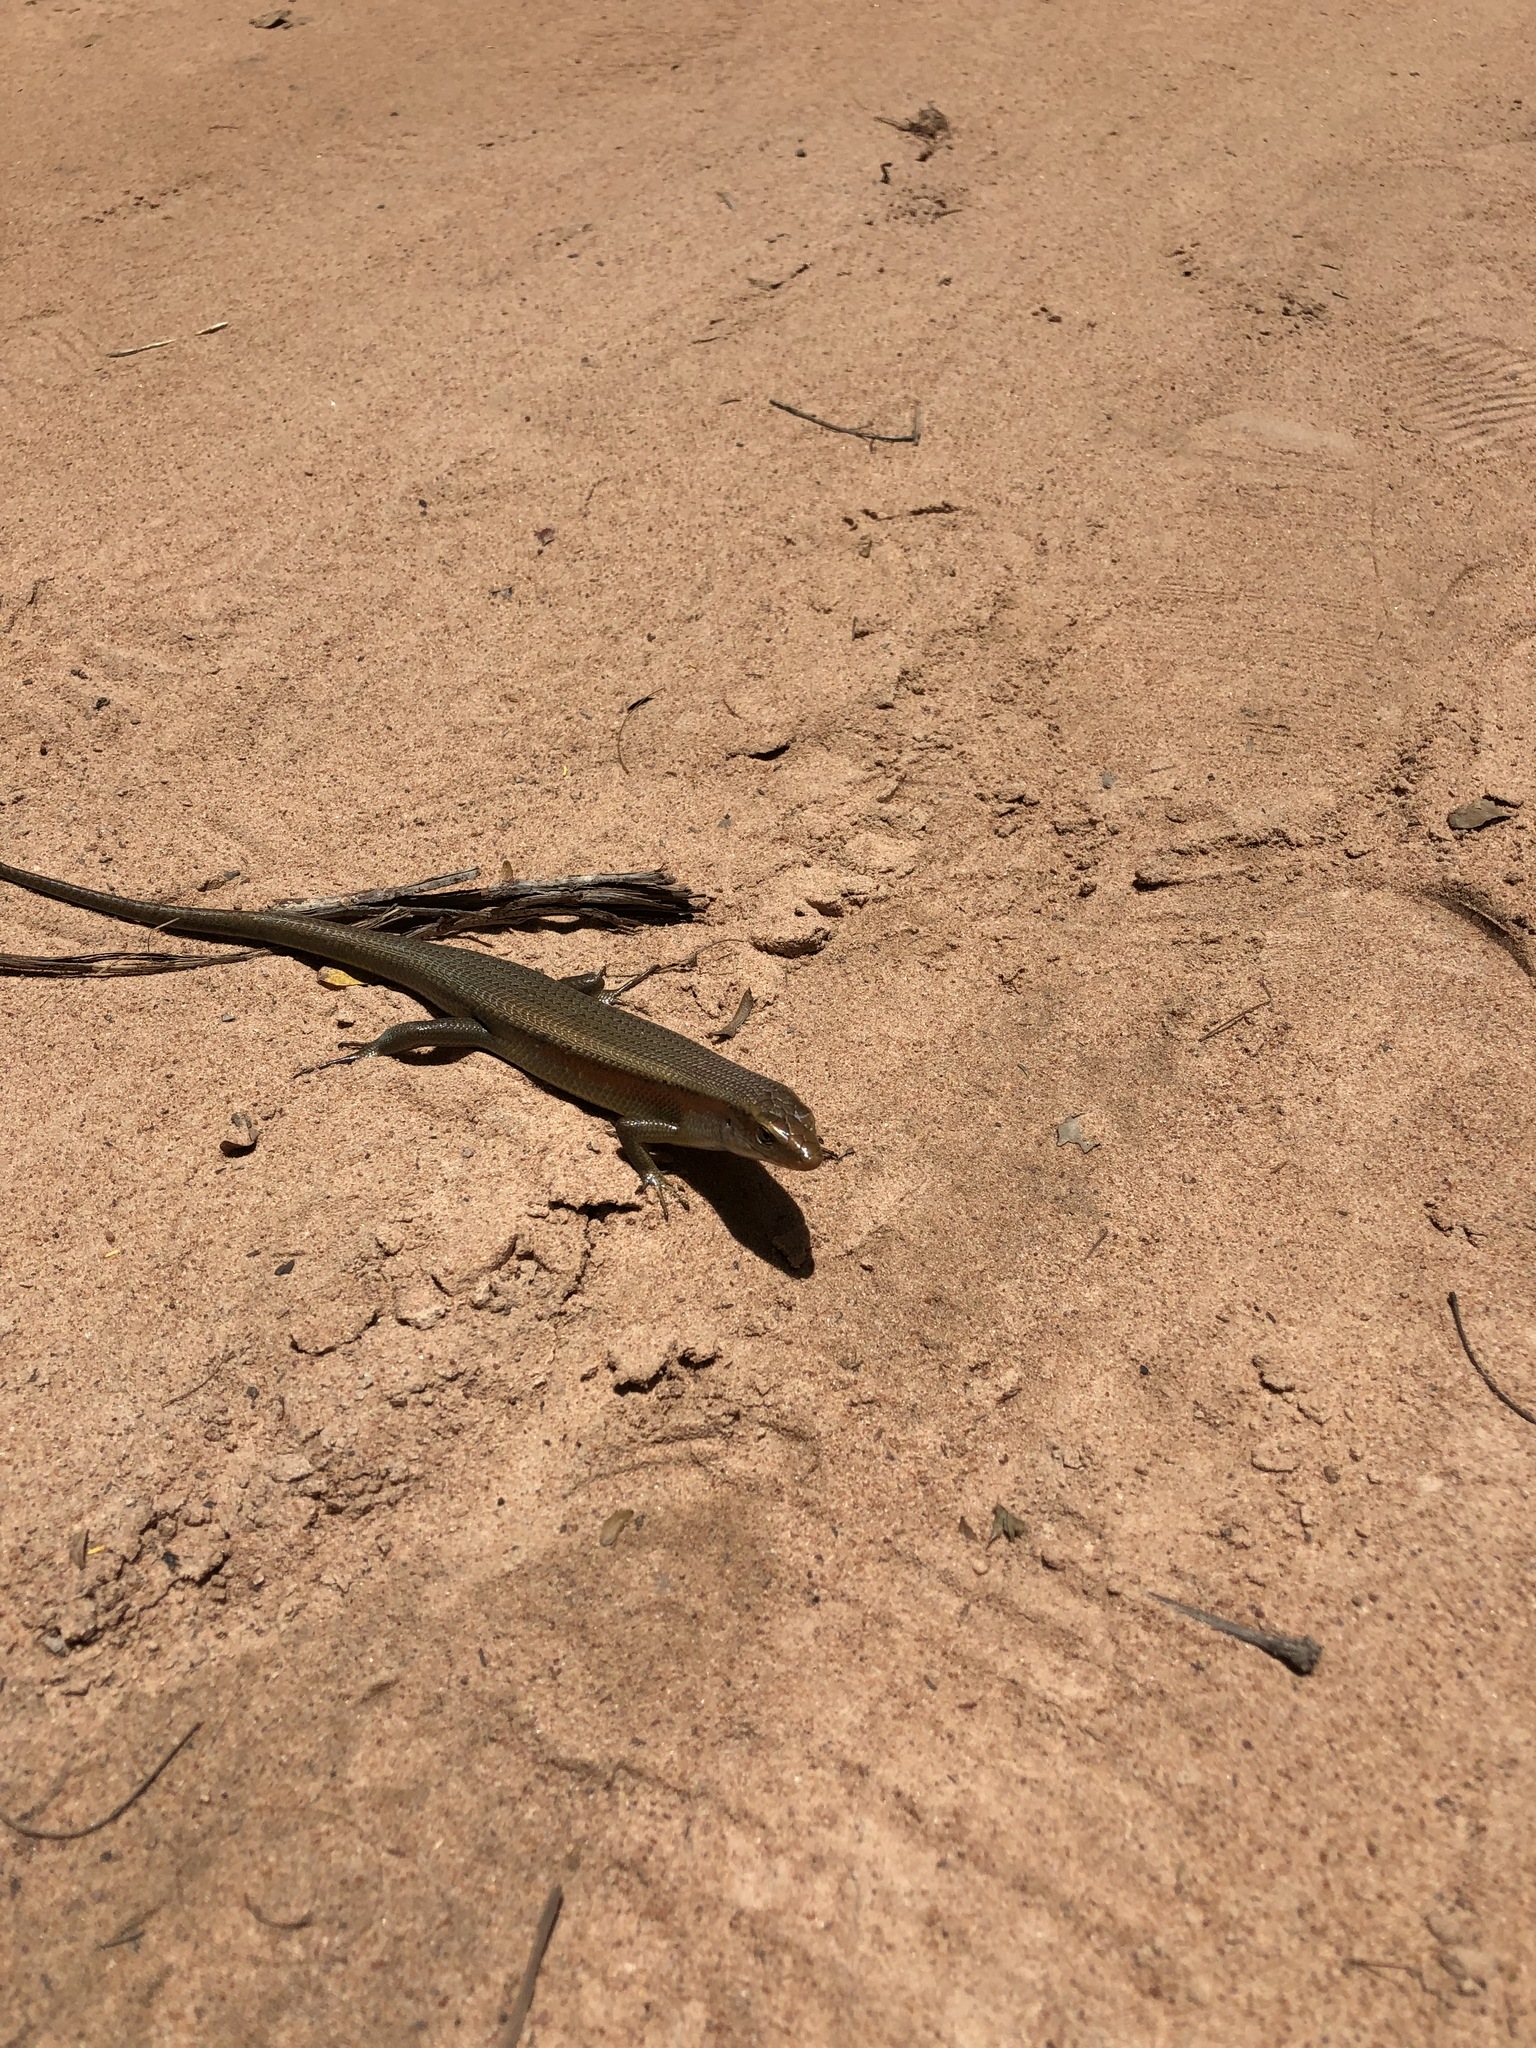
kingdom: Animalia
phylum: Chordata
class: Squamata
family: Scincidae
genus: Eutropis
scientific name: Eutropis multifasciata
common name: Common mabuya
